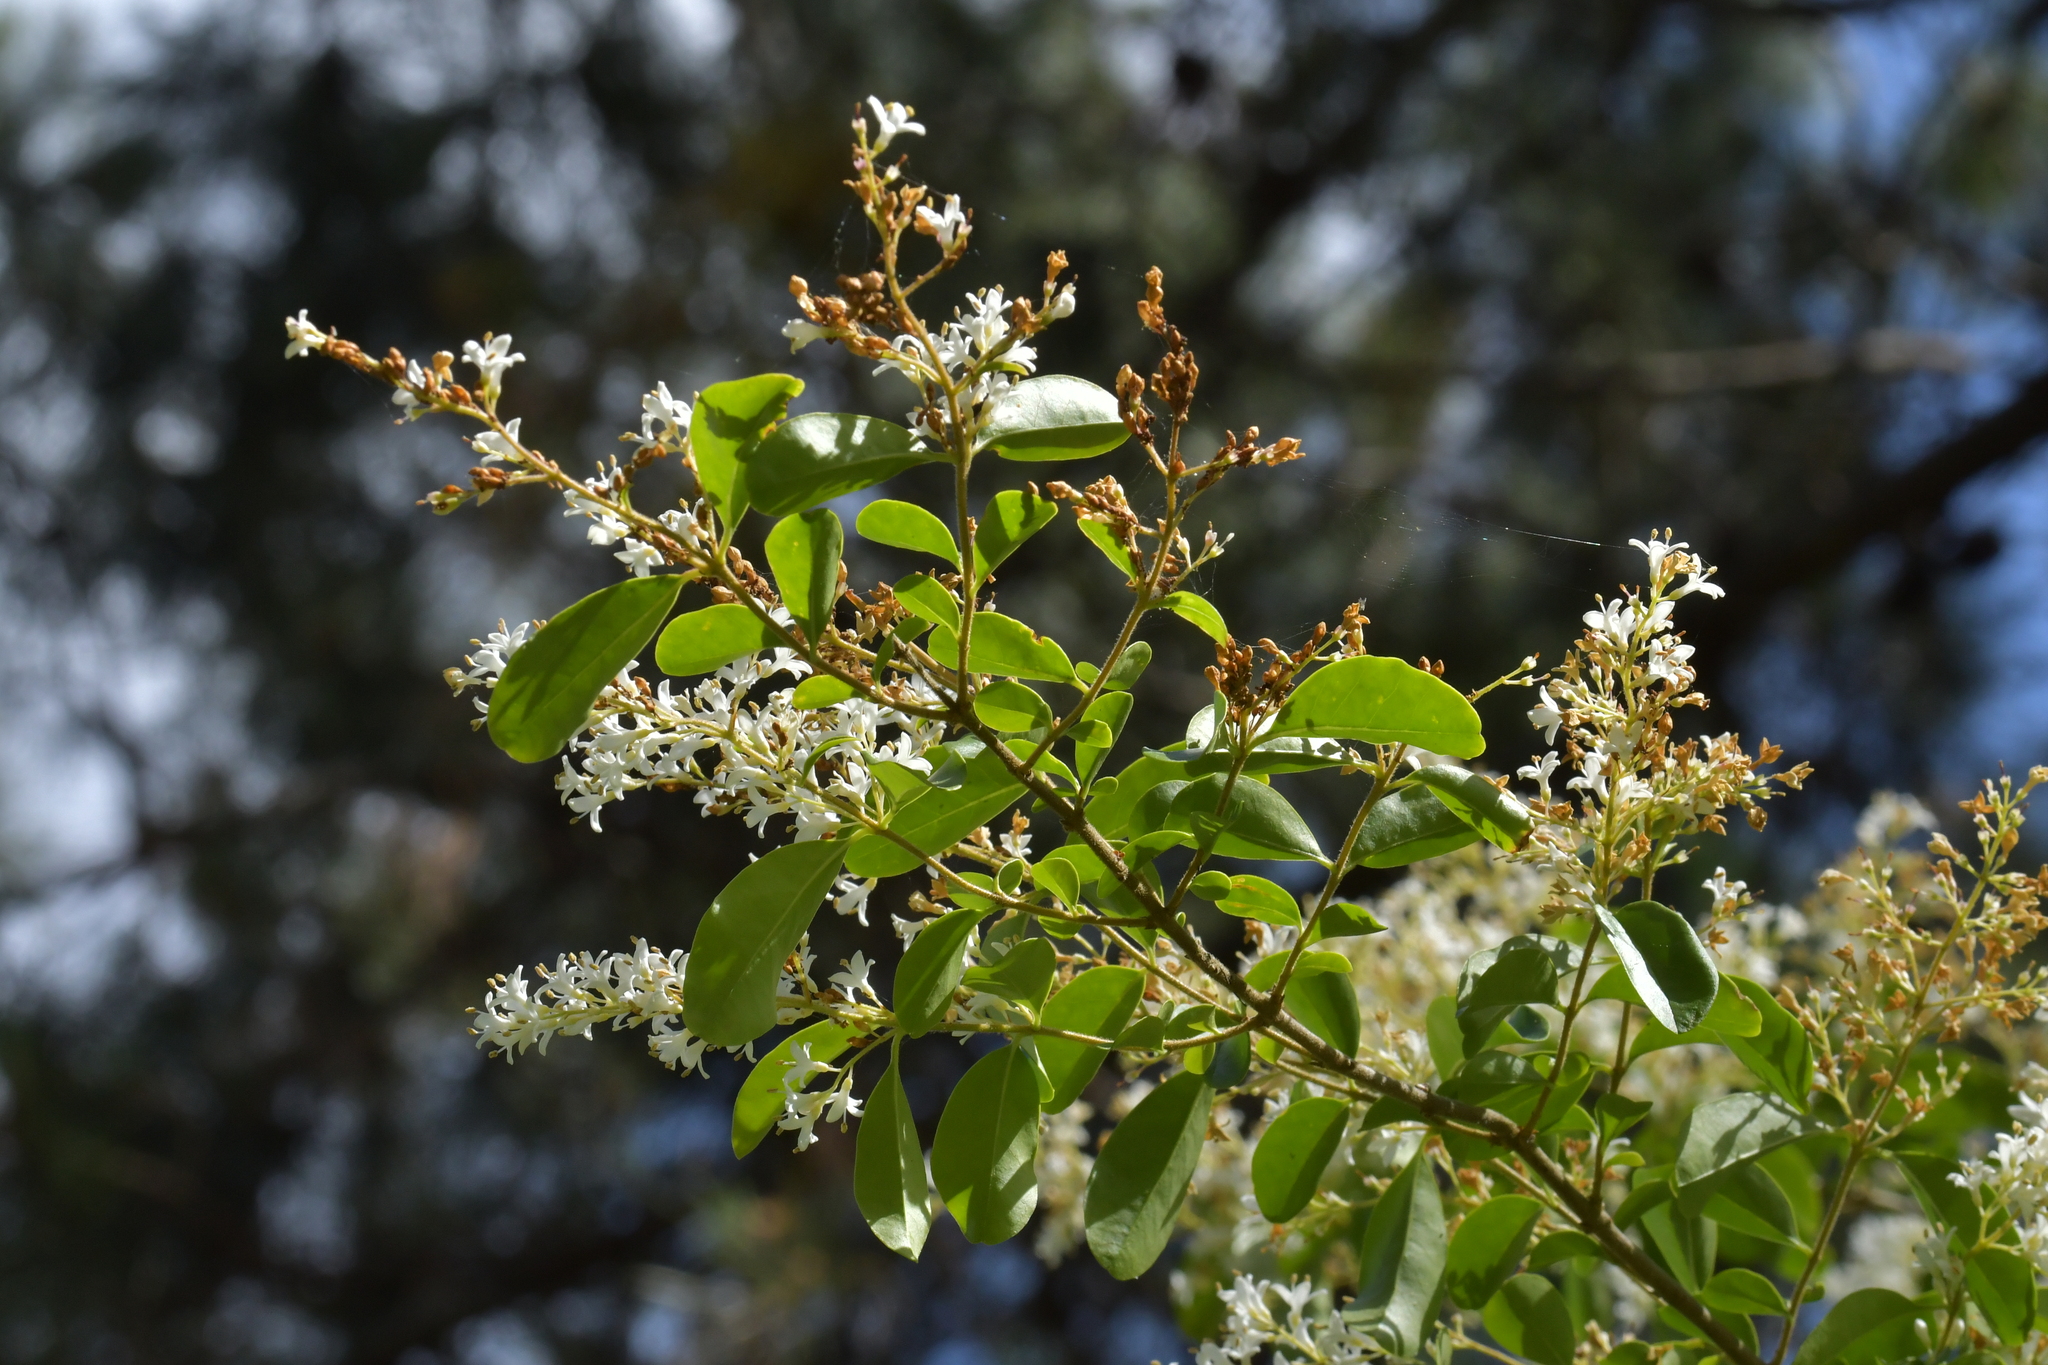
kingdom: Plantae
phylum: Tracheophyta
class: Magnoliopsida
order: Lamiales
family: Oleaceae
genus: Ligustrum
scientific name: Ligustrum sinense
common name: Chinese privet
